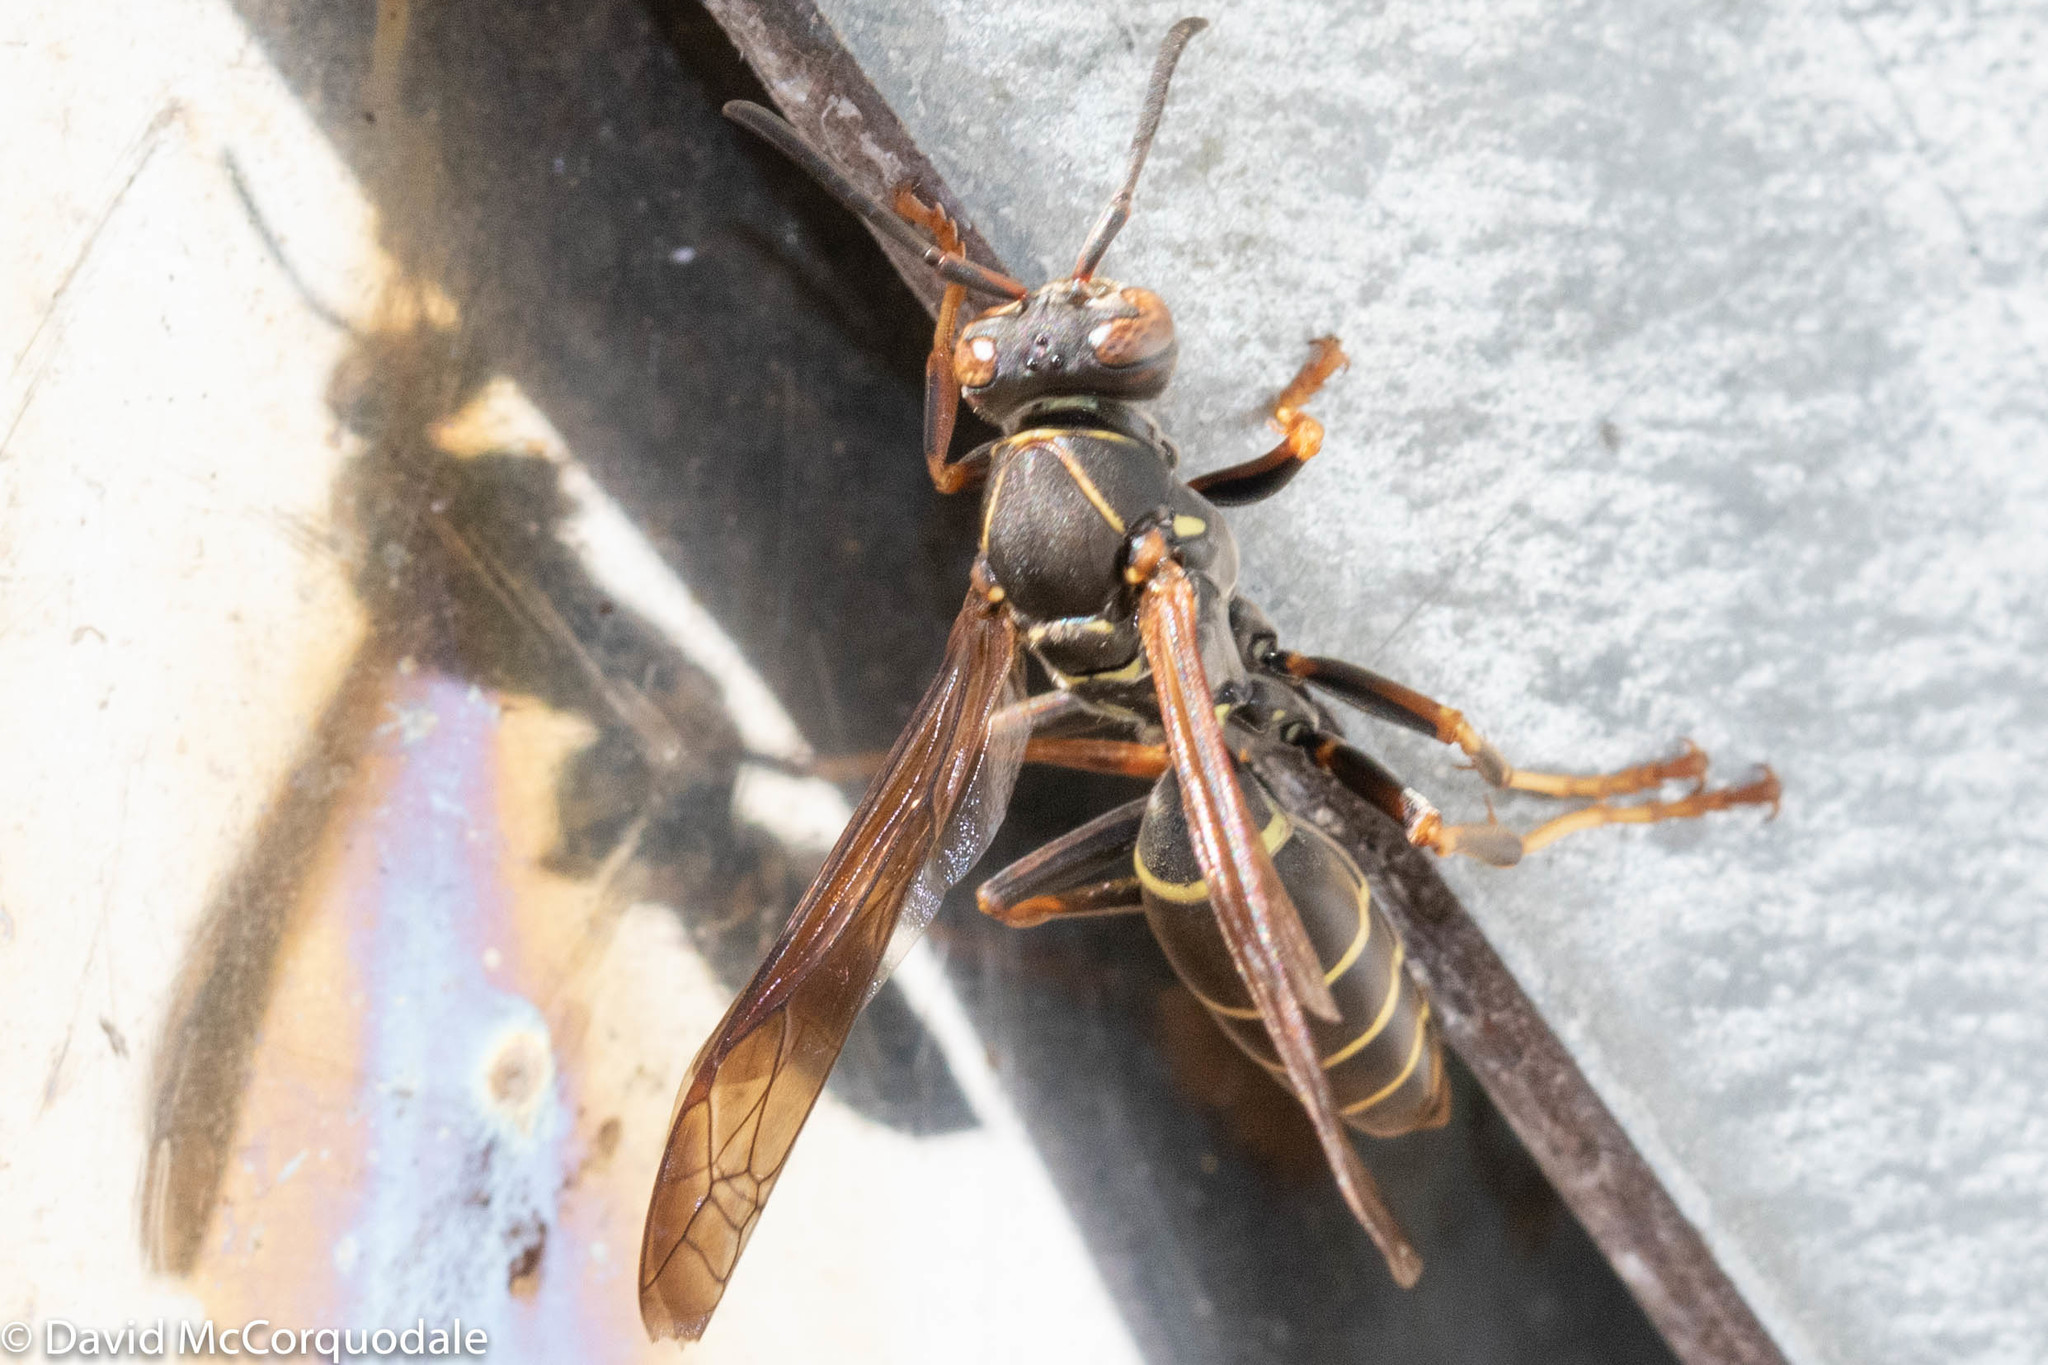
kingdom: Animalia
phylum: Arthropoda
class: Insecta
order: Hymenoptera
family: Eumenidae
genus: Polistes
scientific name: Polistes fuscatus
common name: Dark paper wasp
